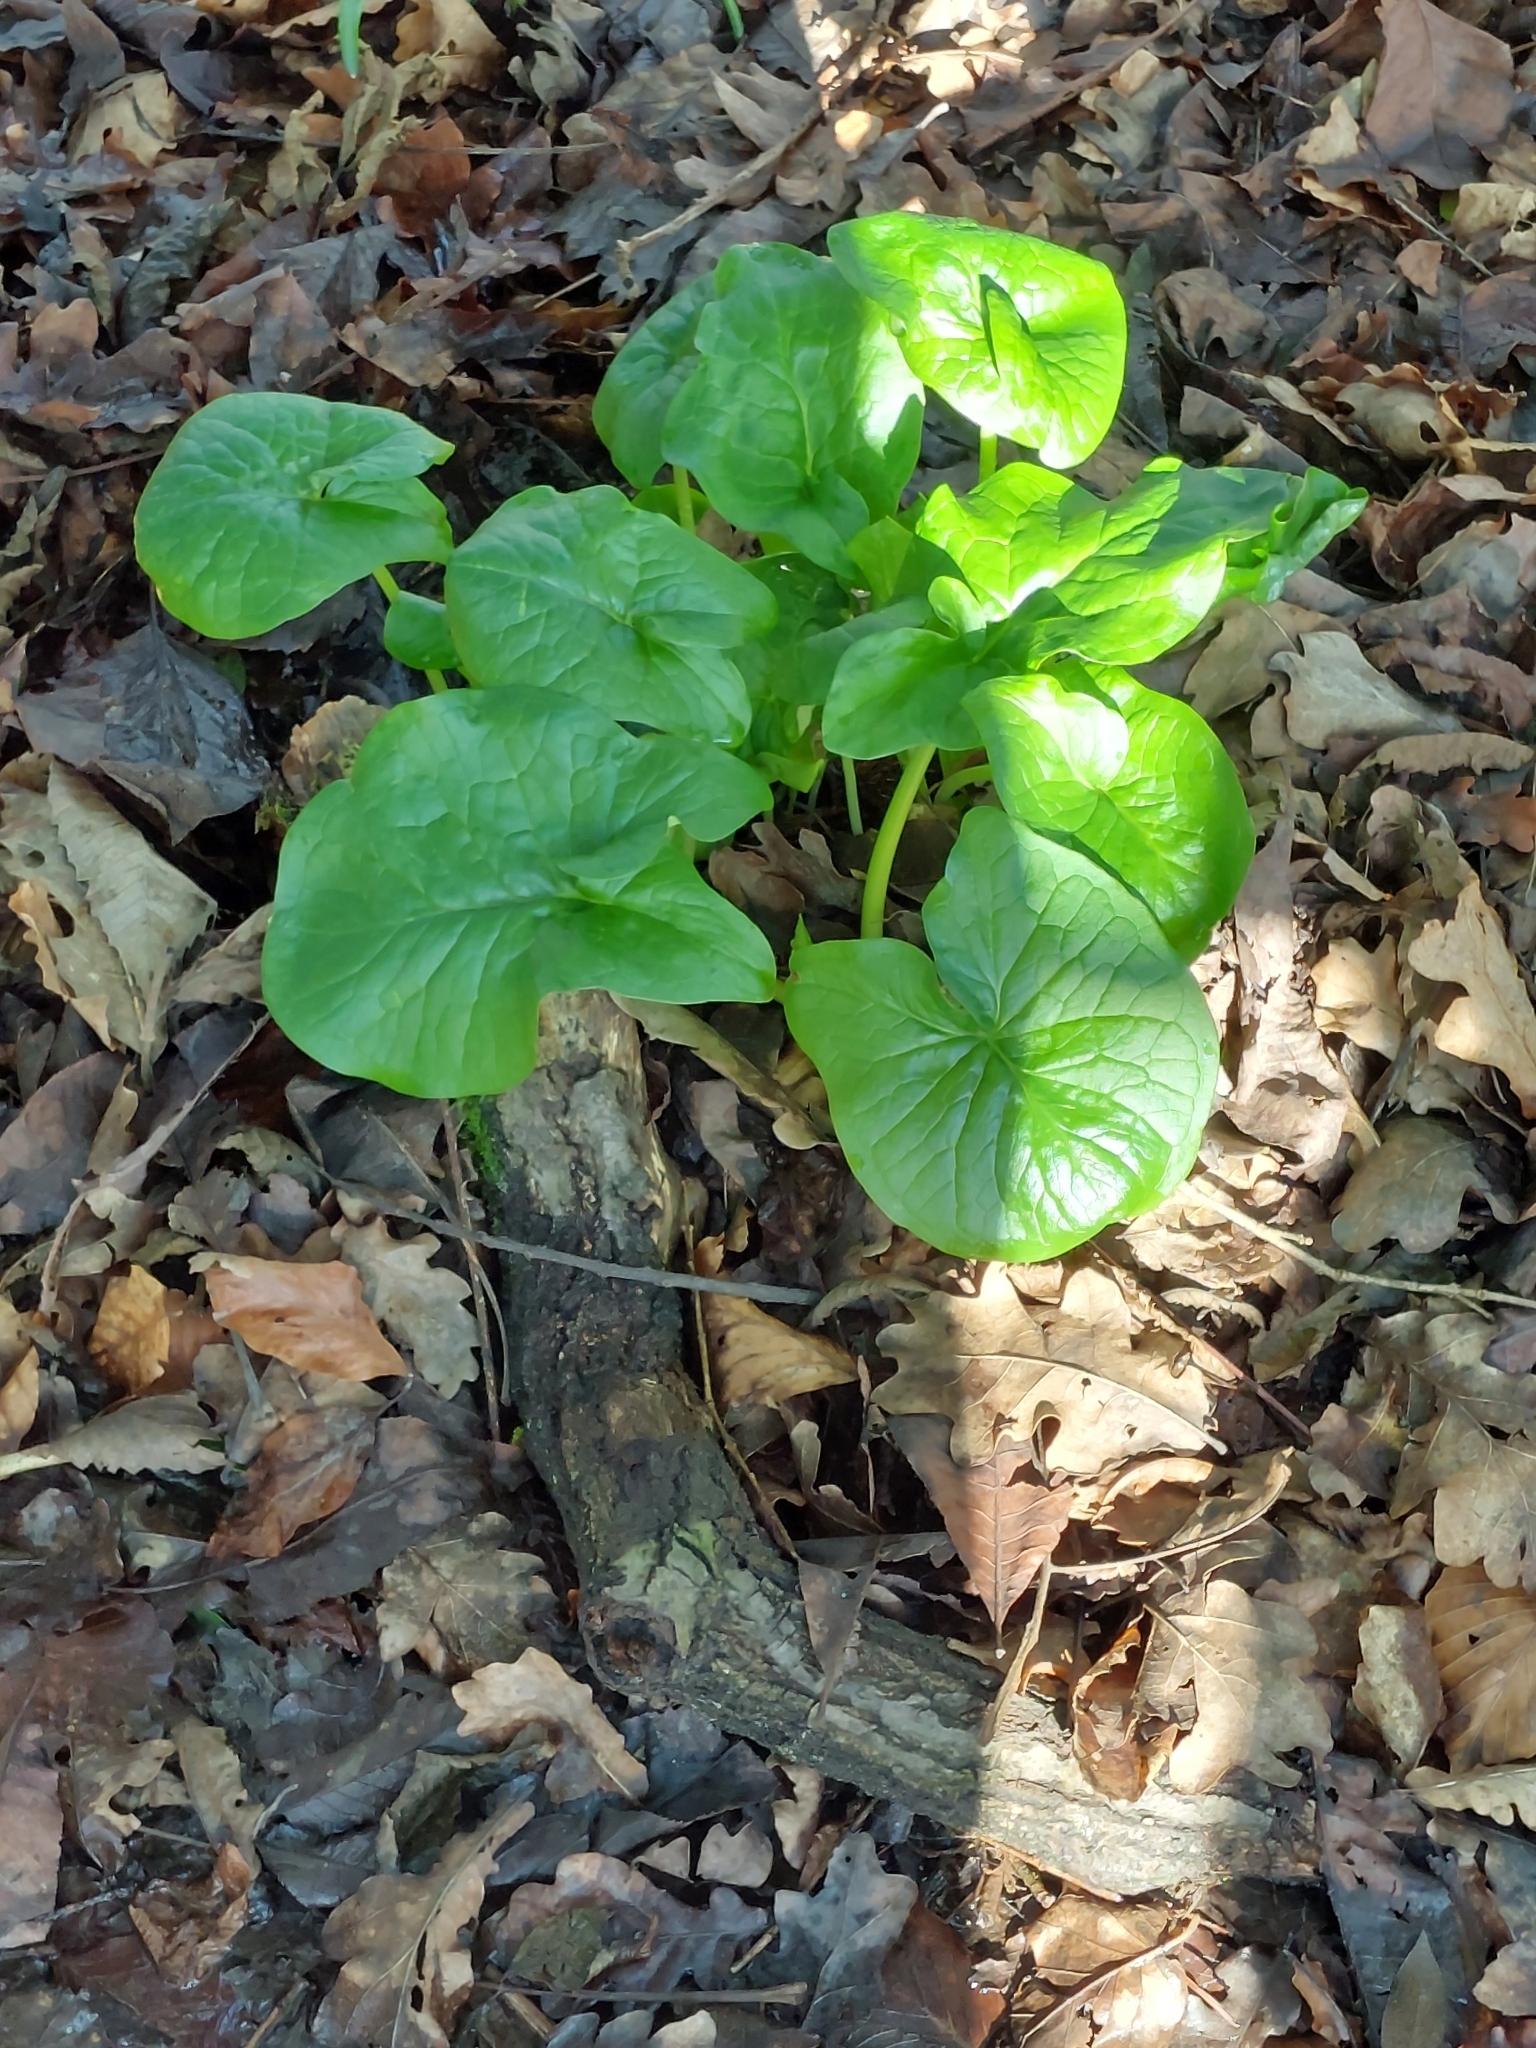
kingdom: Plantae
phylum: Tracheophyta
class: Liliopsida
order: Alismatales
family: Araceae
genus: Arum
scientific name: Arum maculatum
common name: Lords-and-ladies
